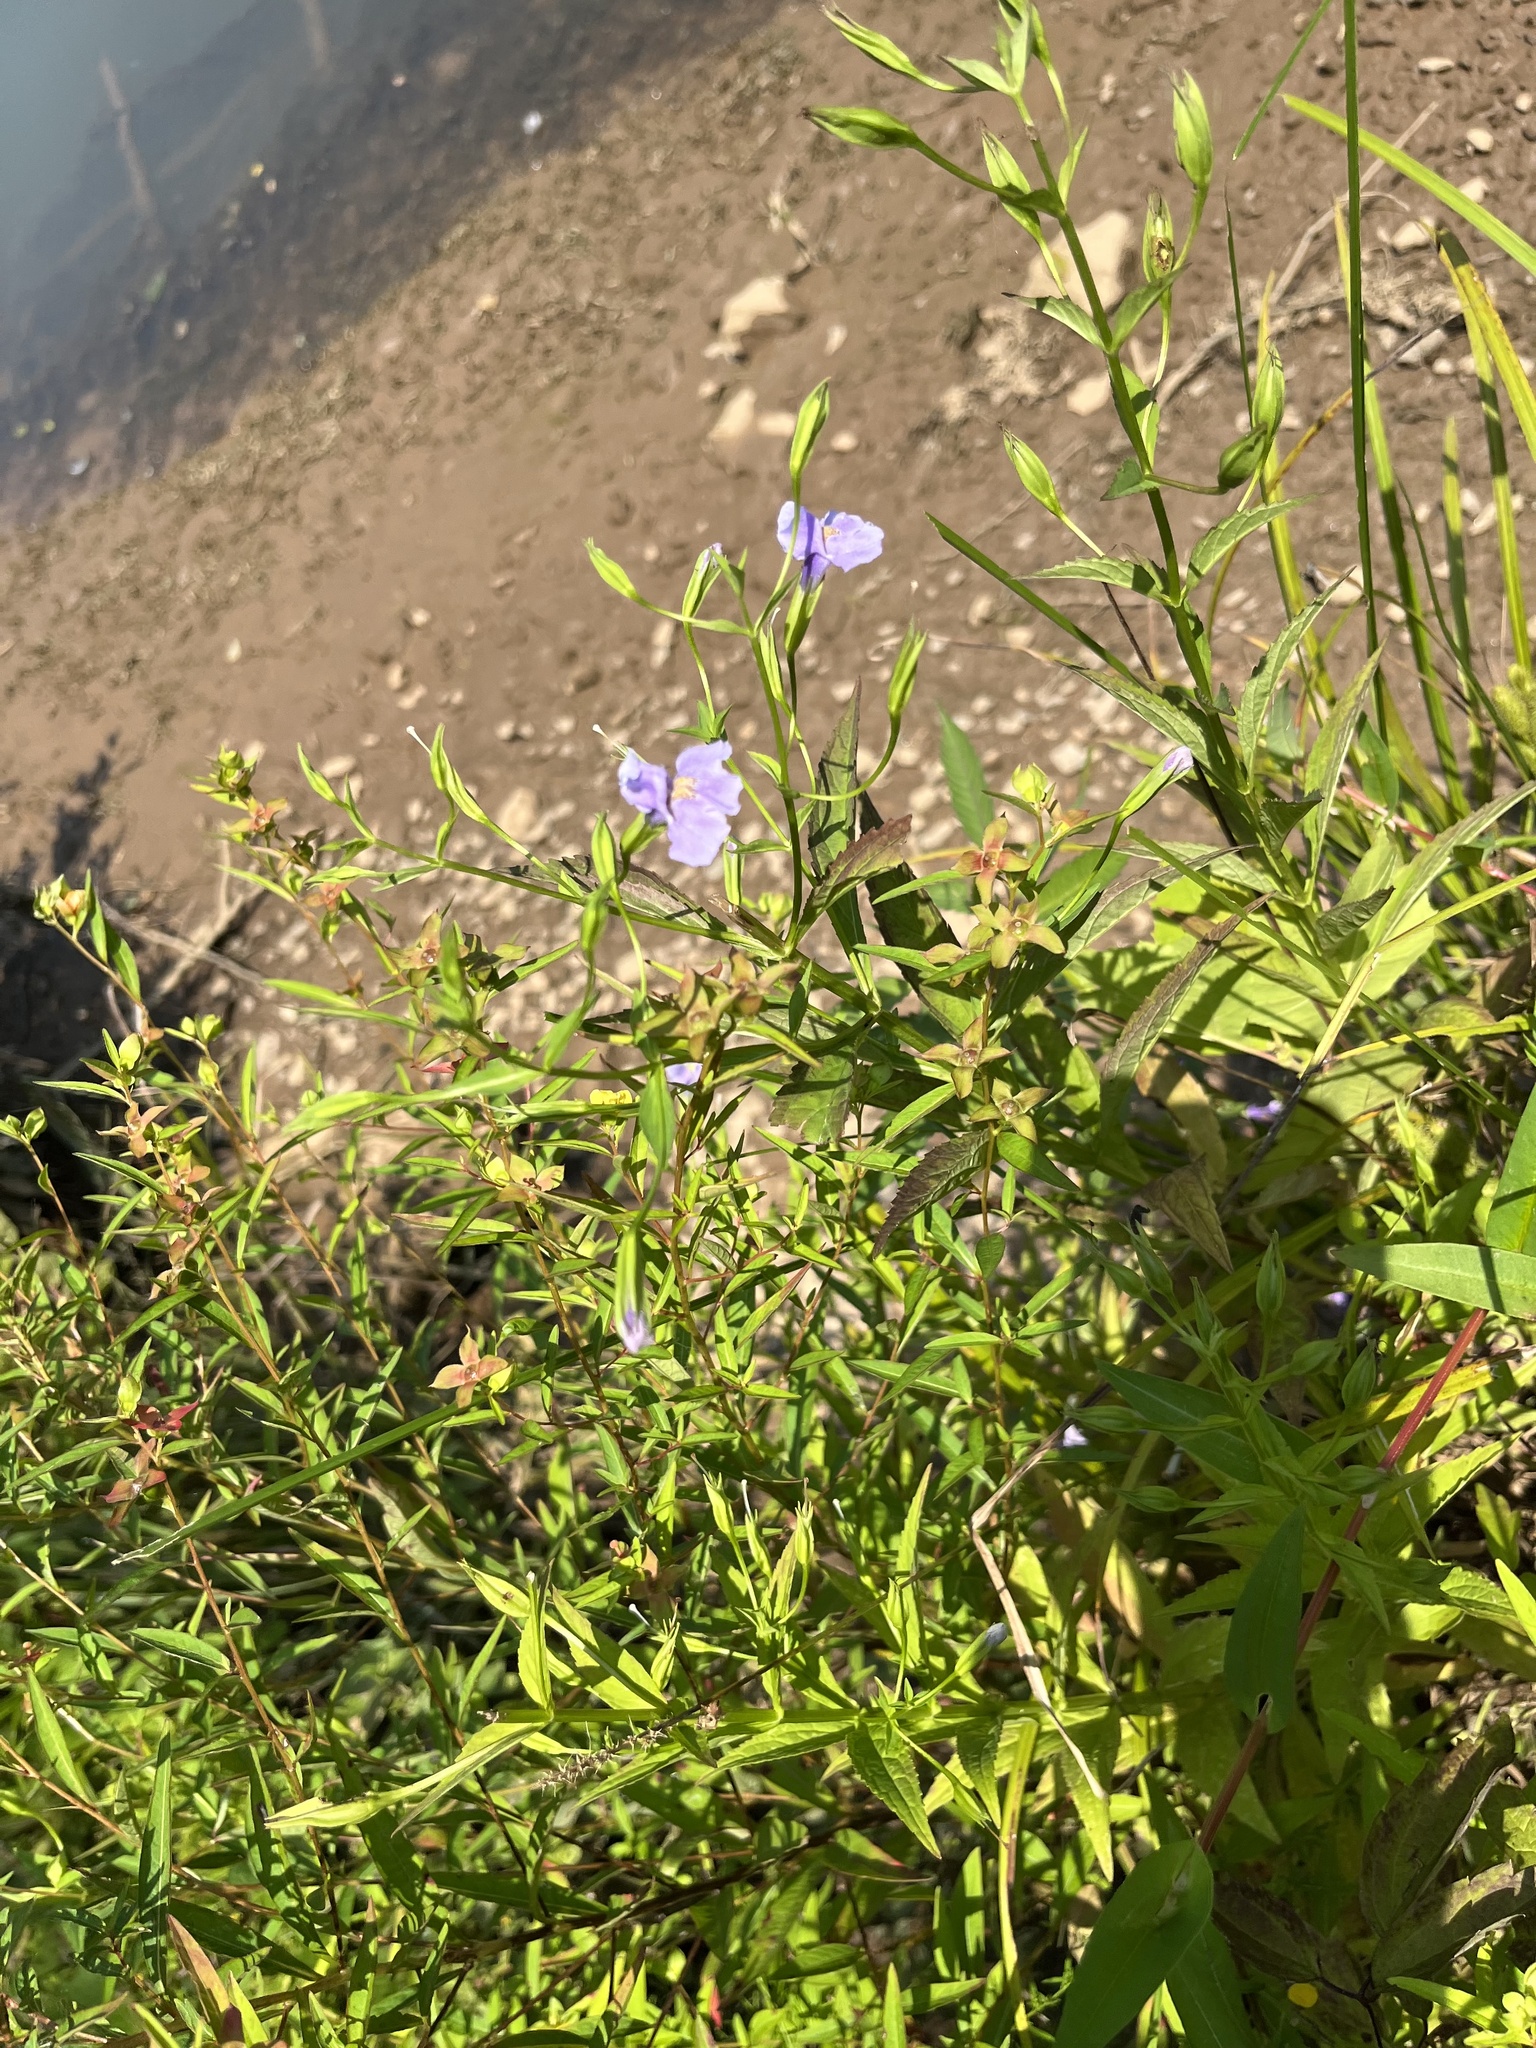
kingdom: Plantae
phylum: Tracheophyta
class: Magnoliopsida
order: Lamiales
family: Phrymaceae
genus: Mimulus
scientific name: Mimulus ringens
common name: Allegheny monkeyflower
